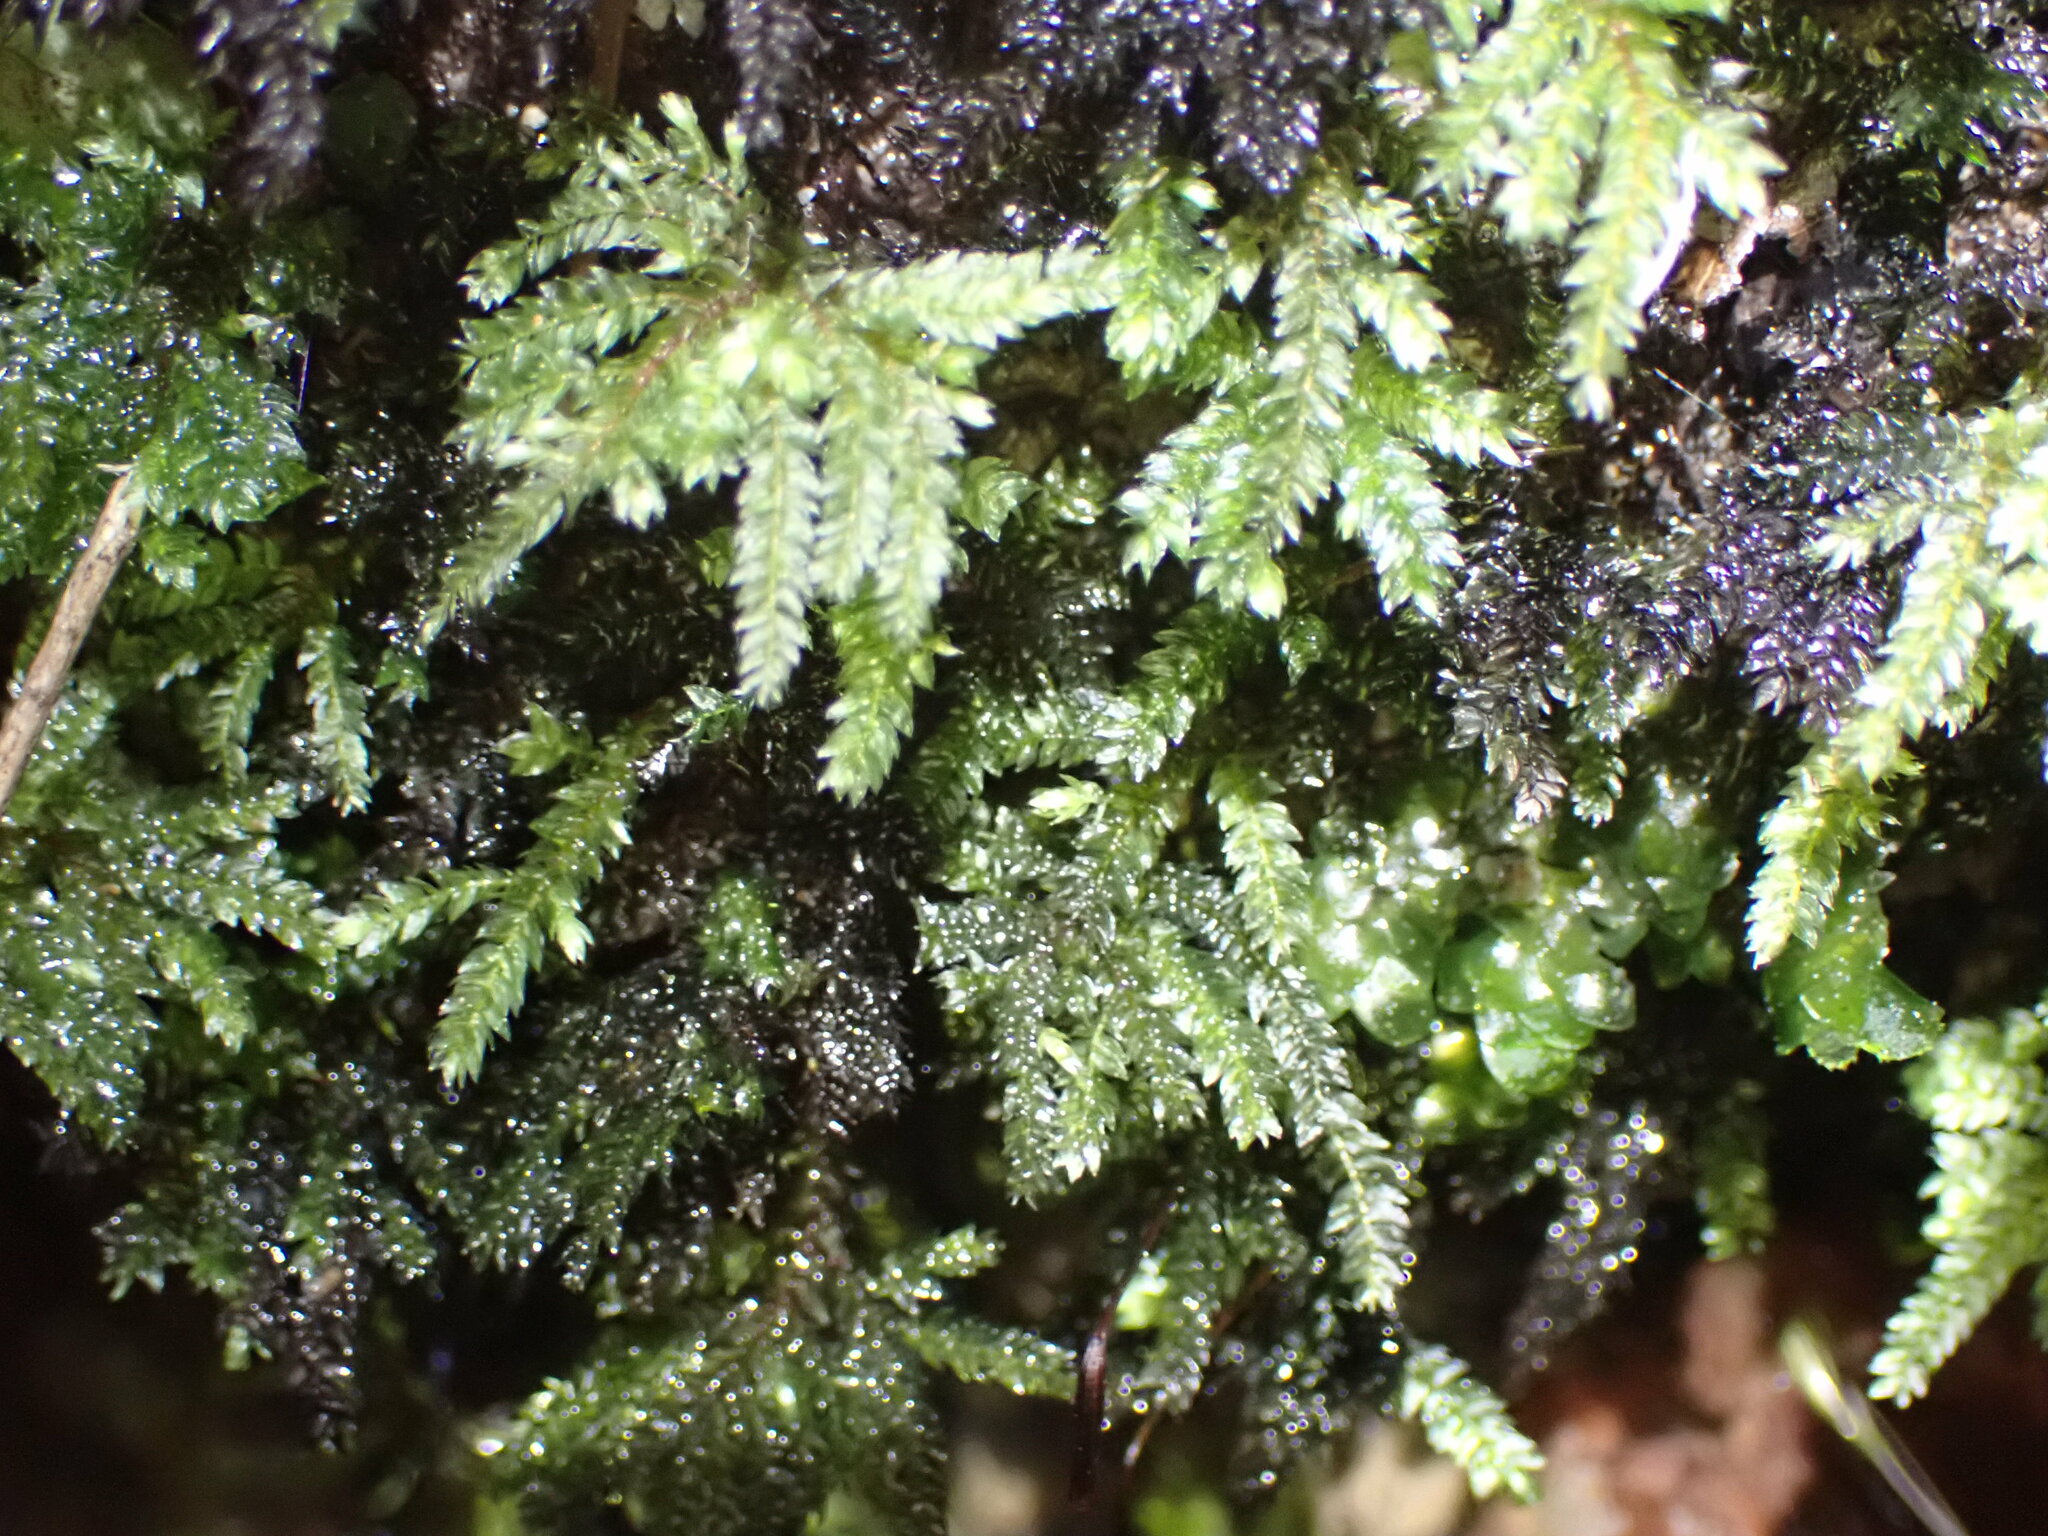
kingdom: Plantae
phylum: Bryophyta
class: Bryopsida
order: Hypnodendrales
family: Spiridentaceae
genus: Hypnodendron
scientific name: Hypnodendron arcuatum
